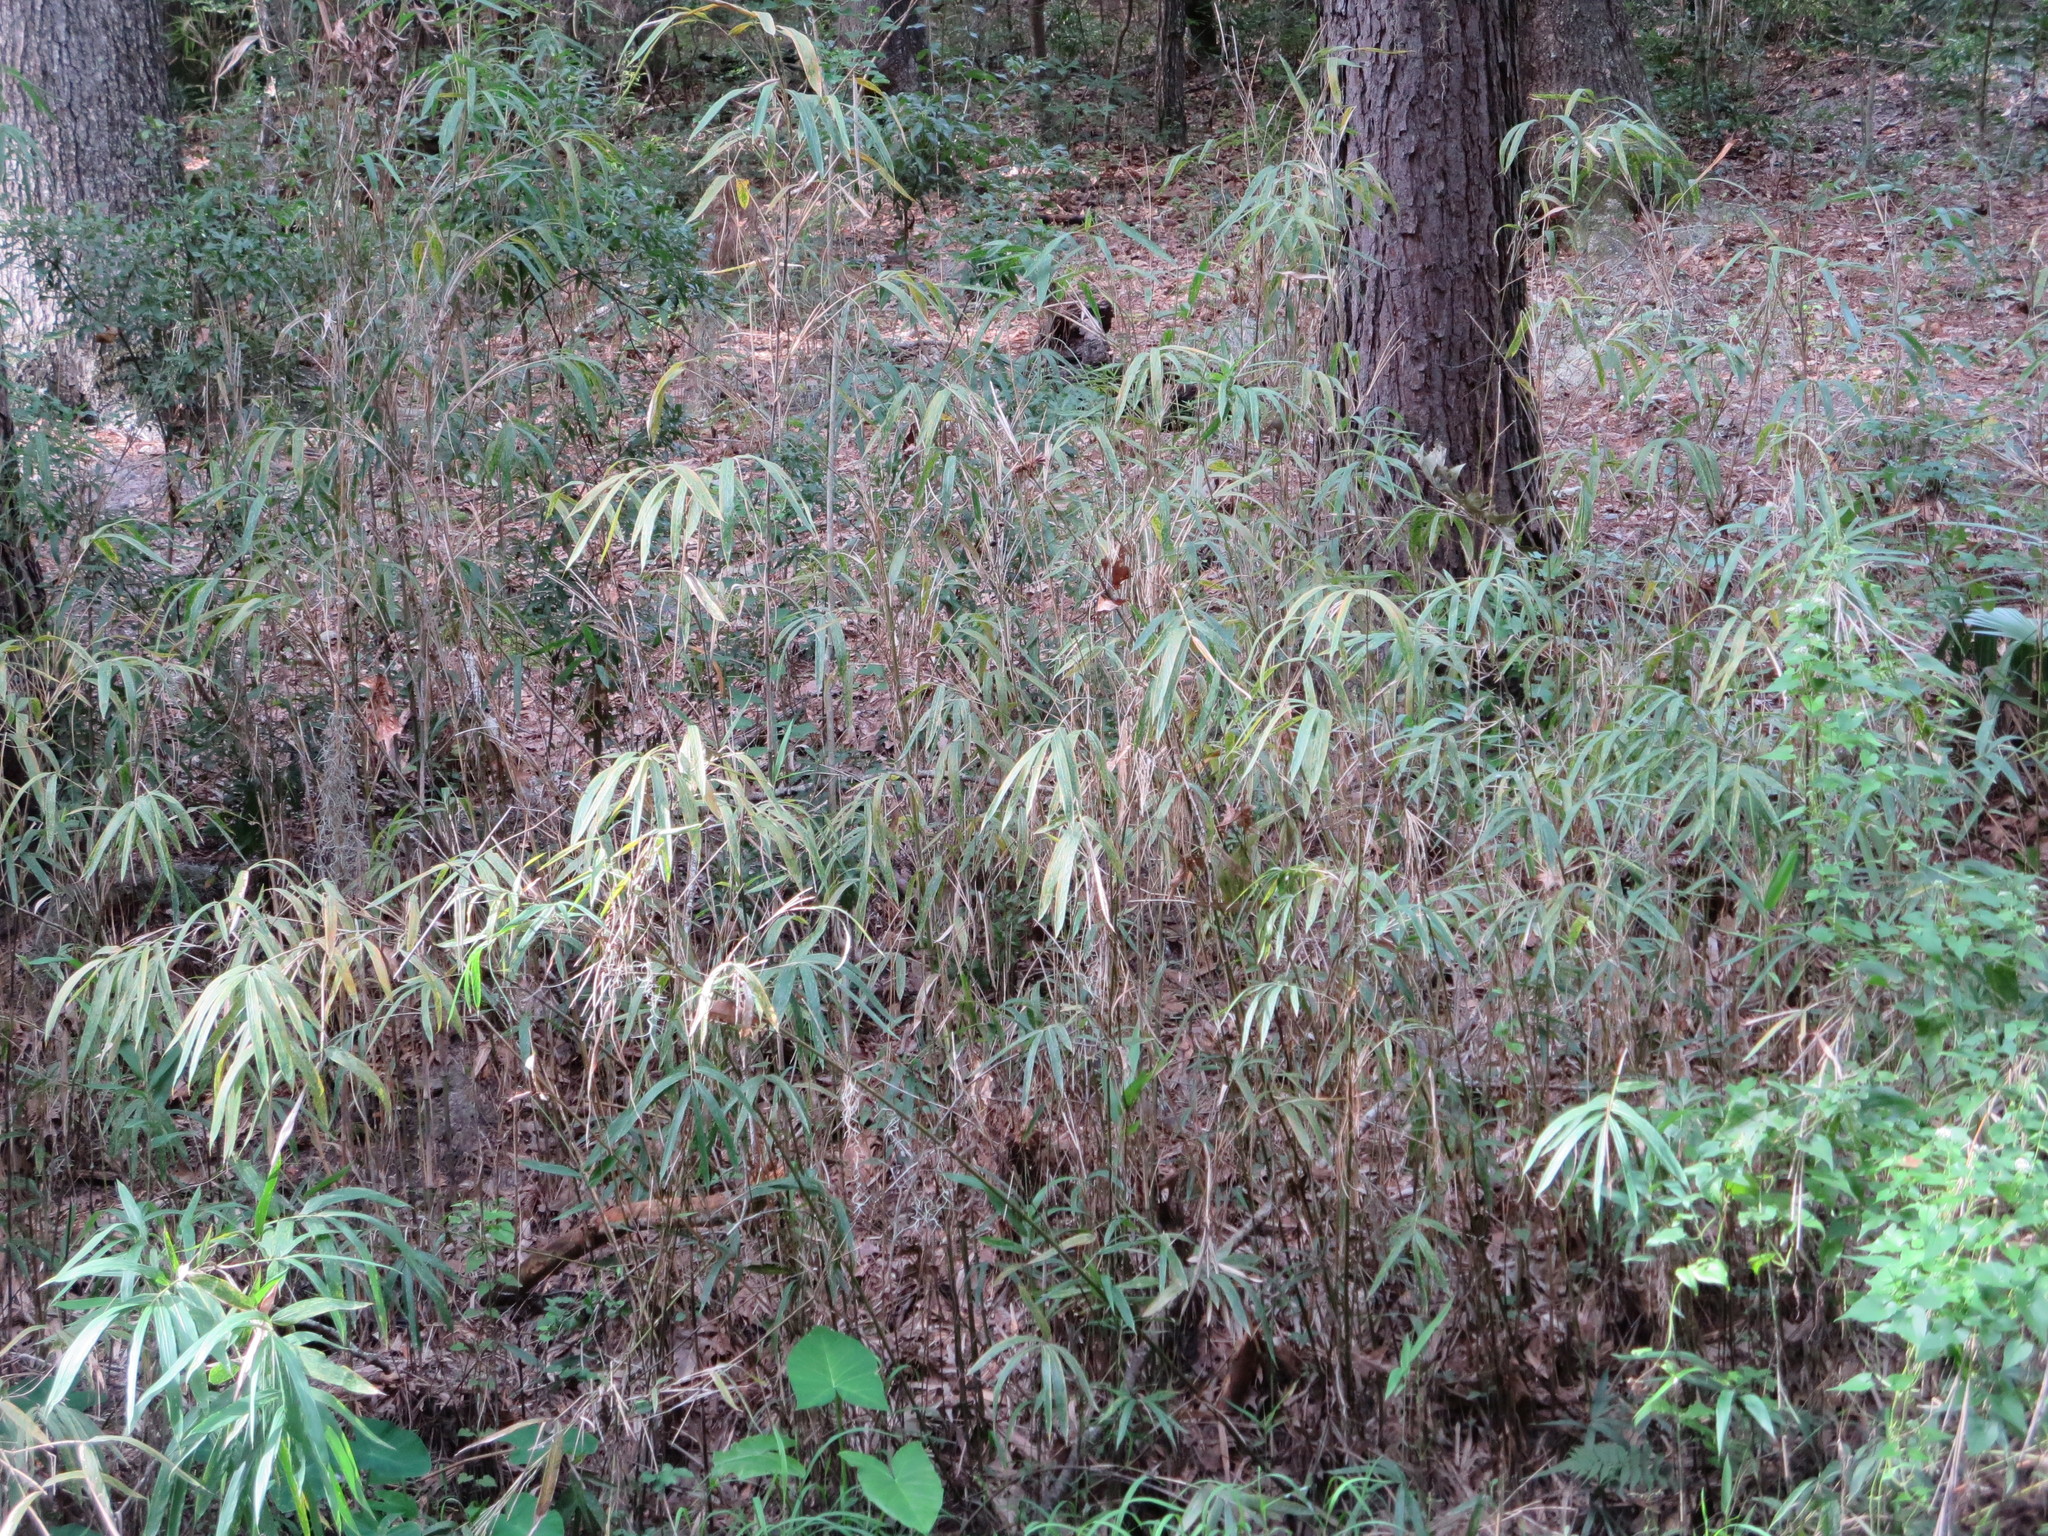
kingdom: Plantae
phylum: Tracheophyta
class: Liliopsida
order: Poales
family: Poaceae
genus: Arundinaria
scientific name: Arundinaria tecta
